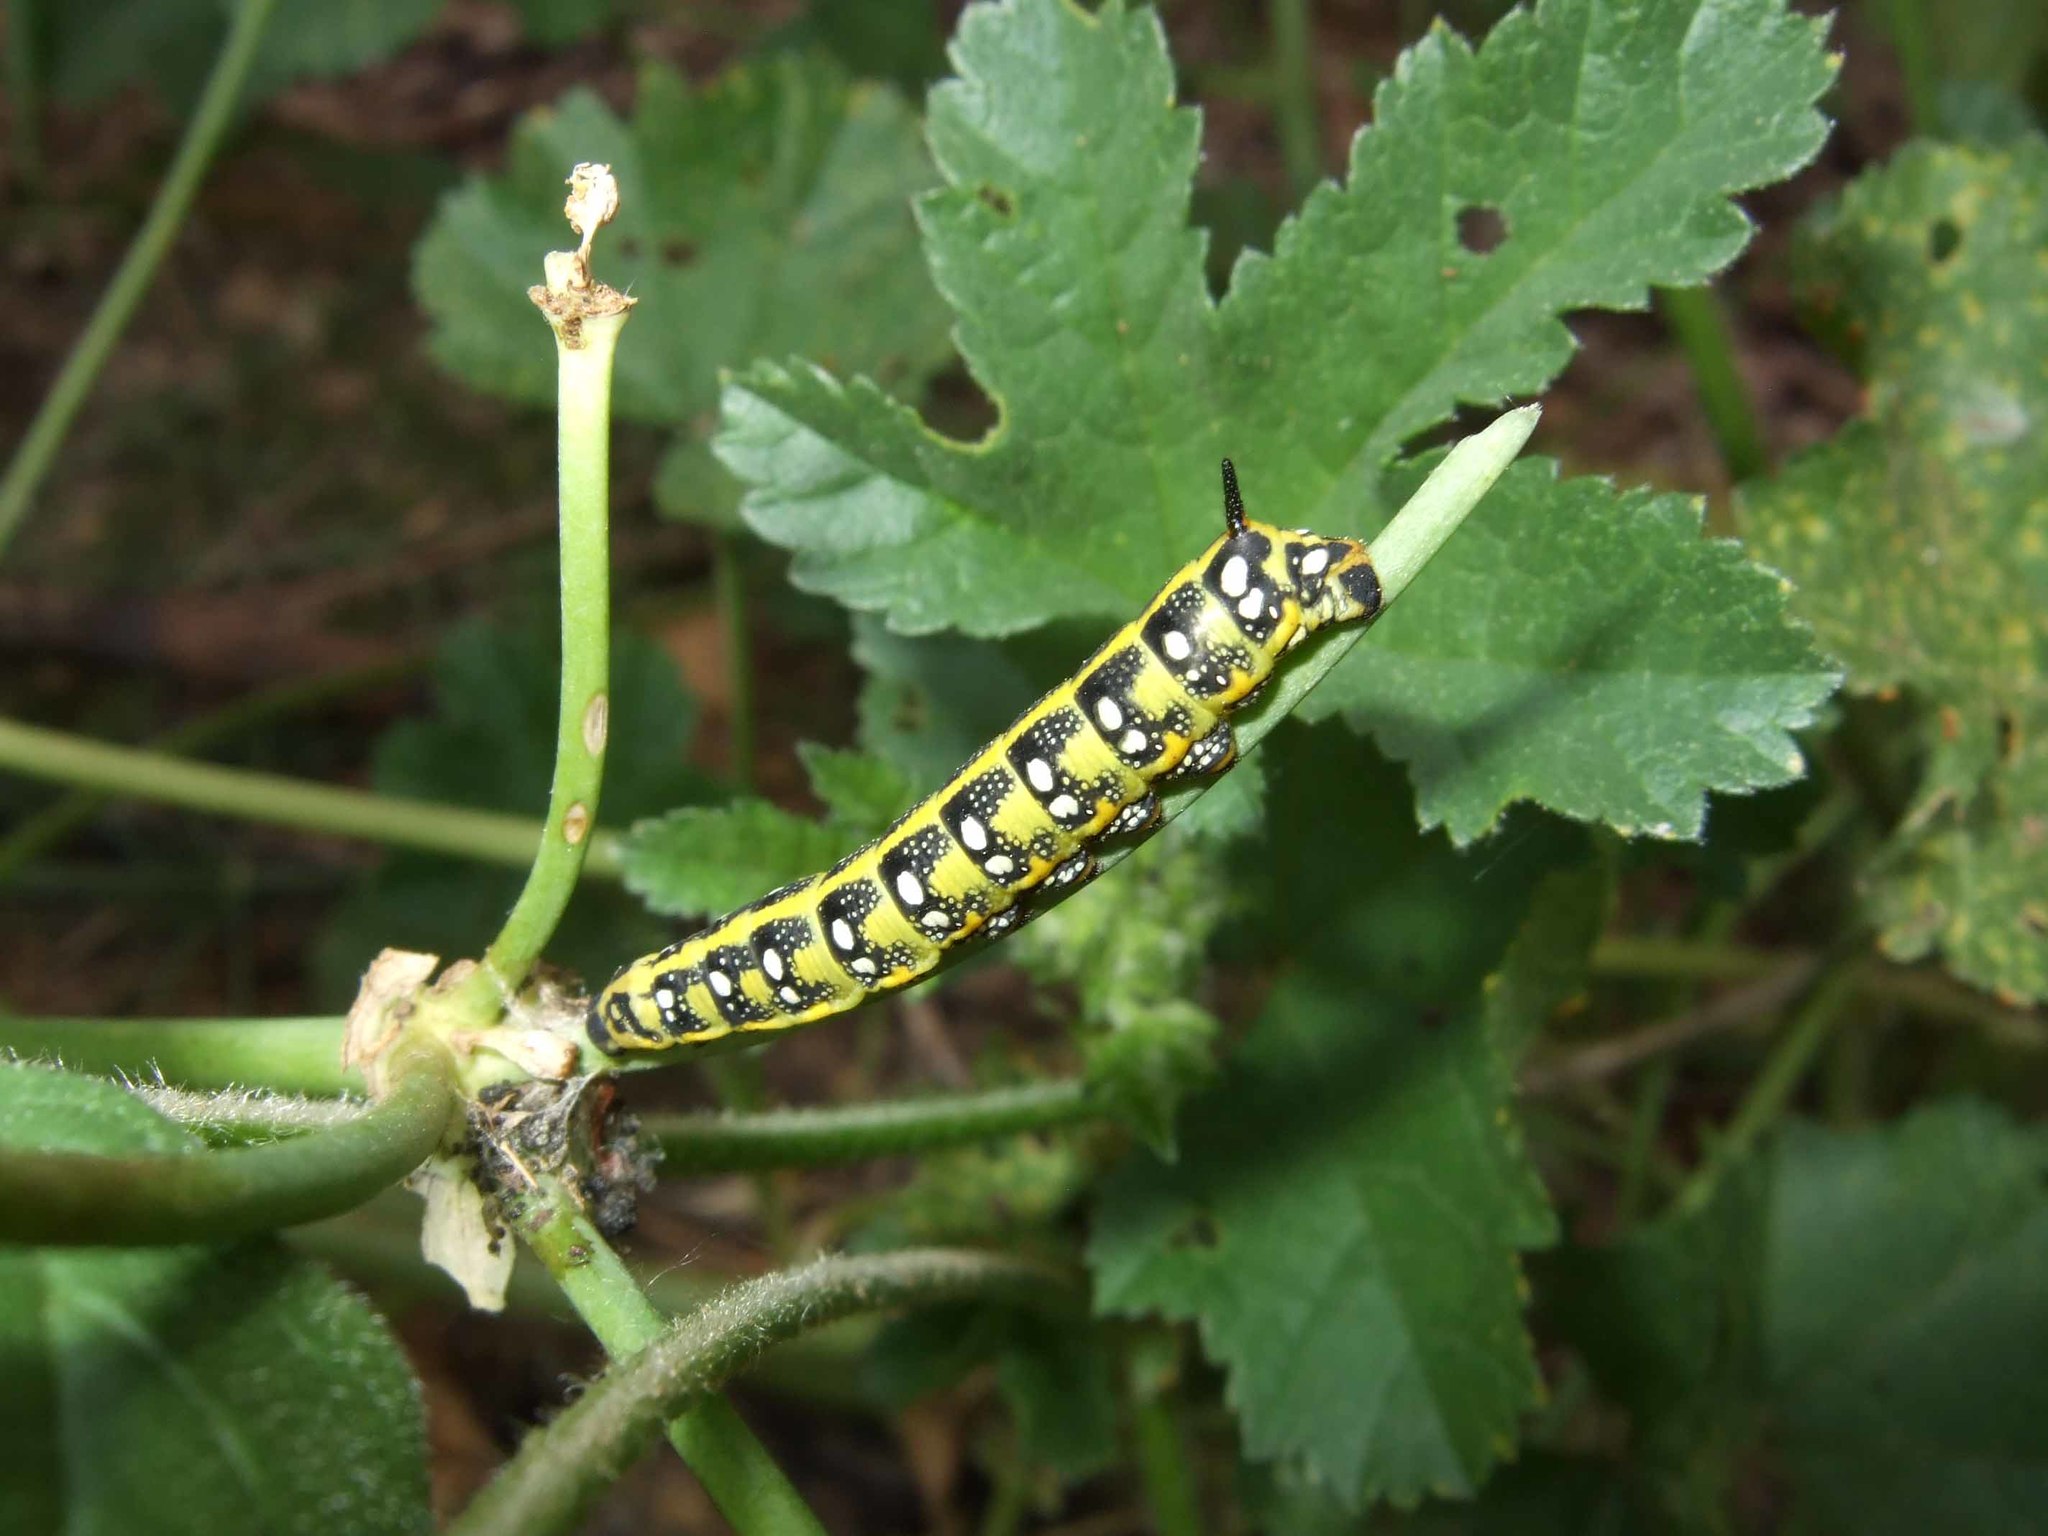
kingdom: Animalia
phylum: Arthropoda
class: Insecta
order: Lepidoptera
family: Sphingidae
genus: Hyles
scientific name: Hyles euphorbiae
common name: Spurge hawk-moth
